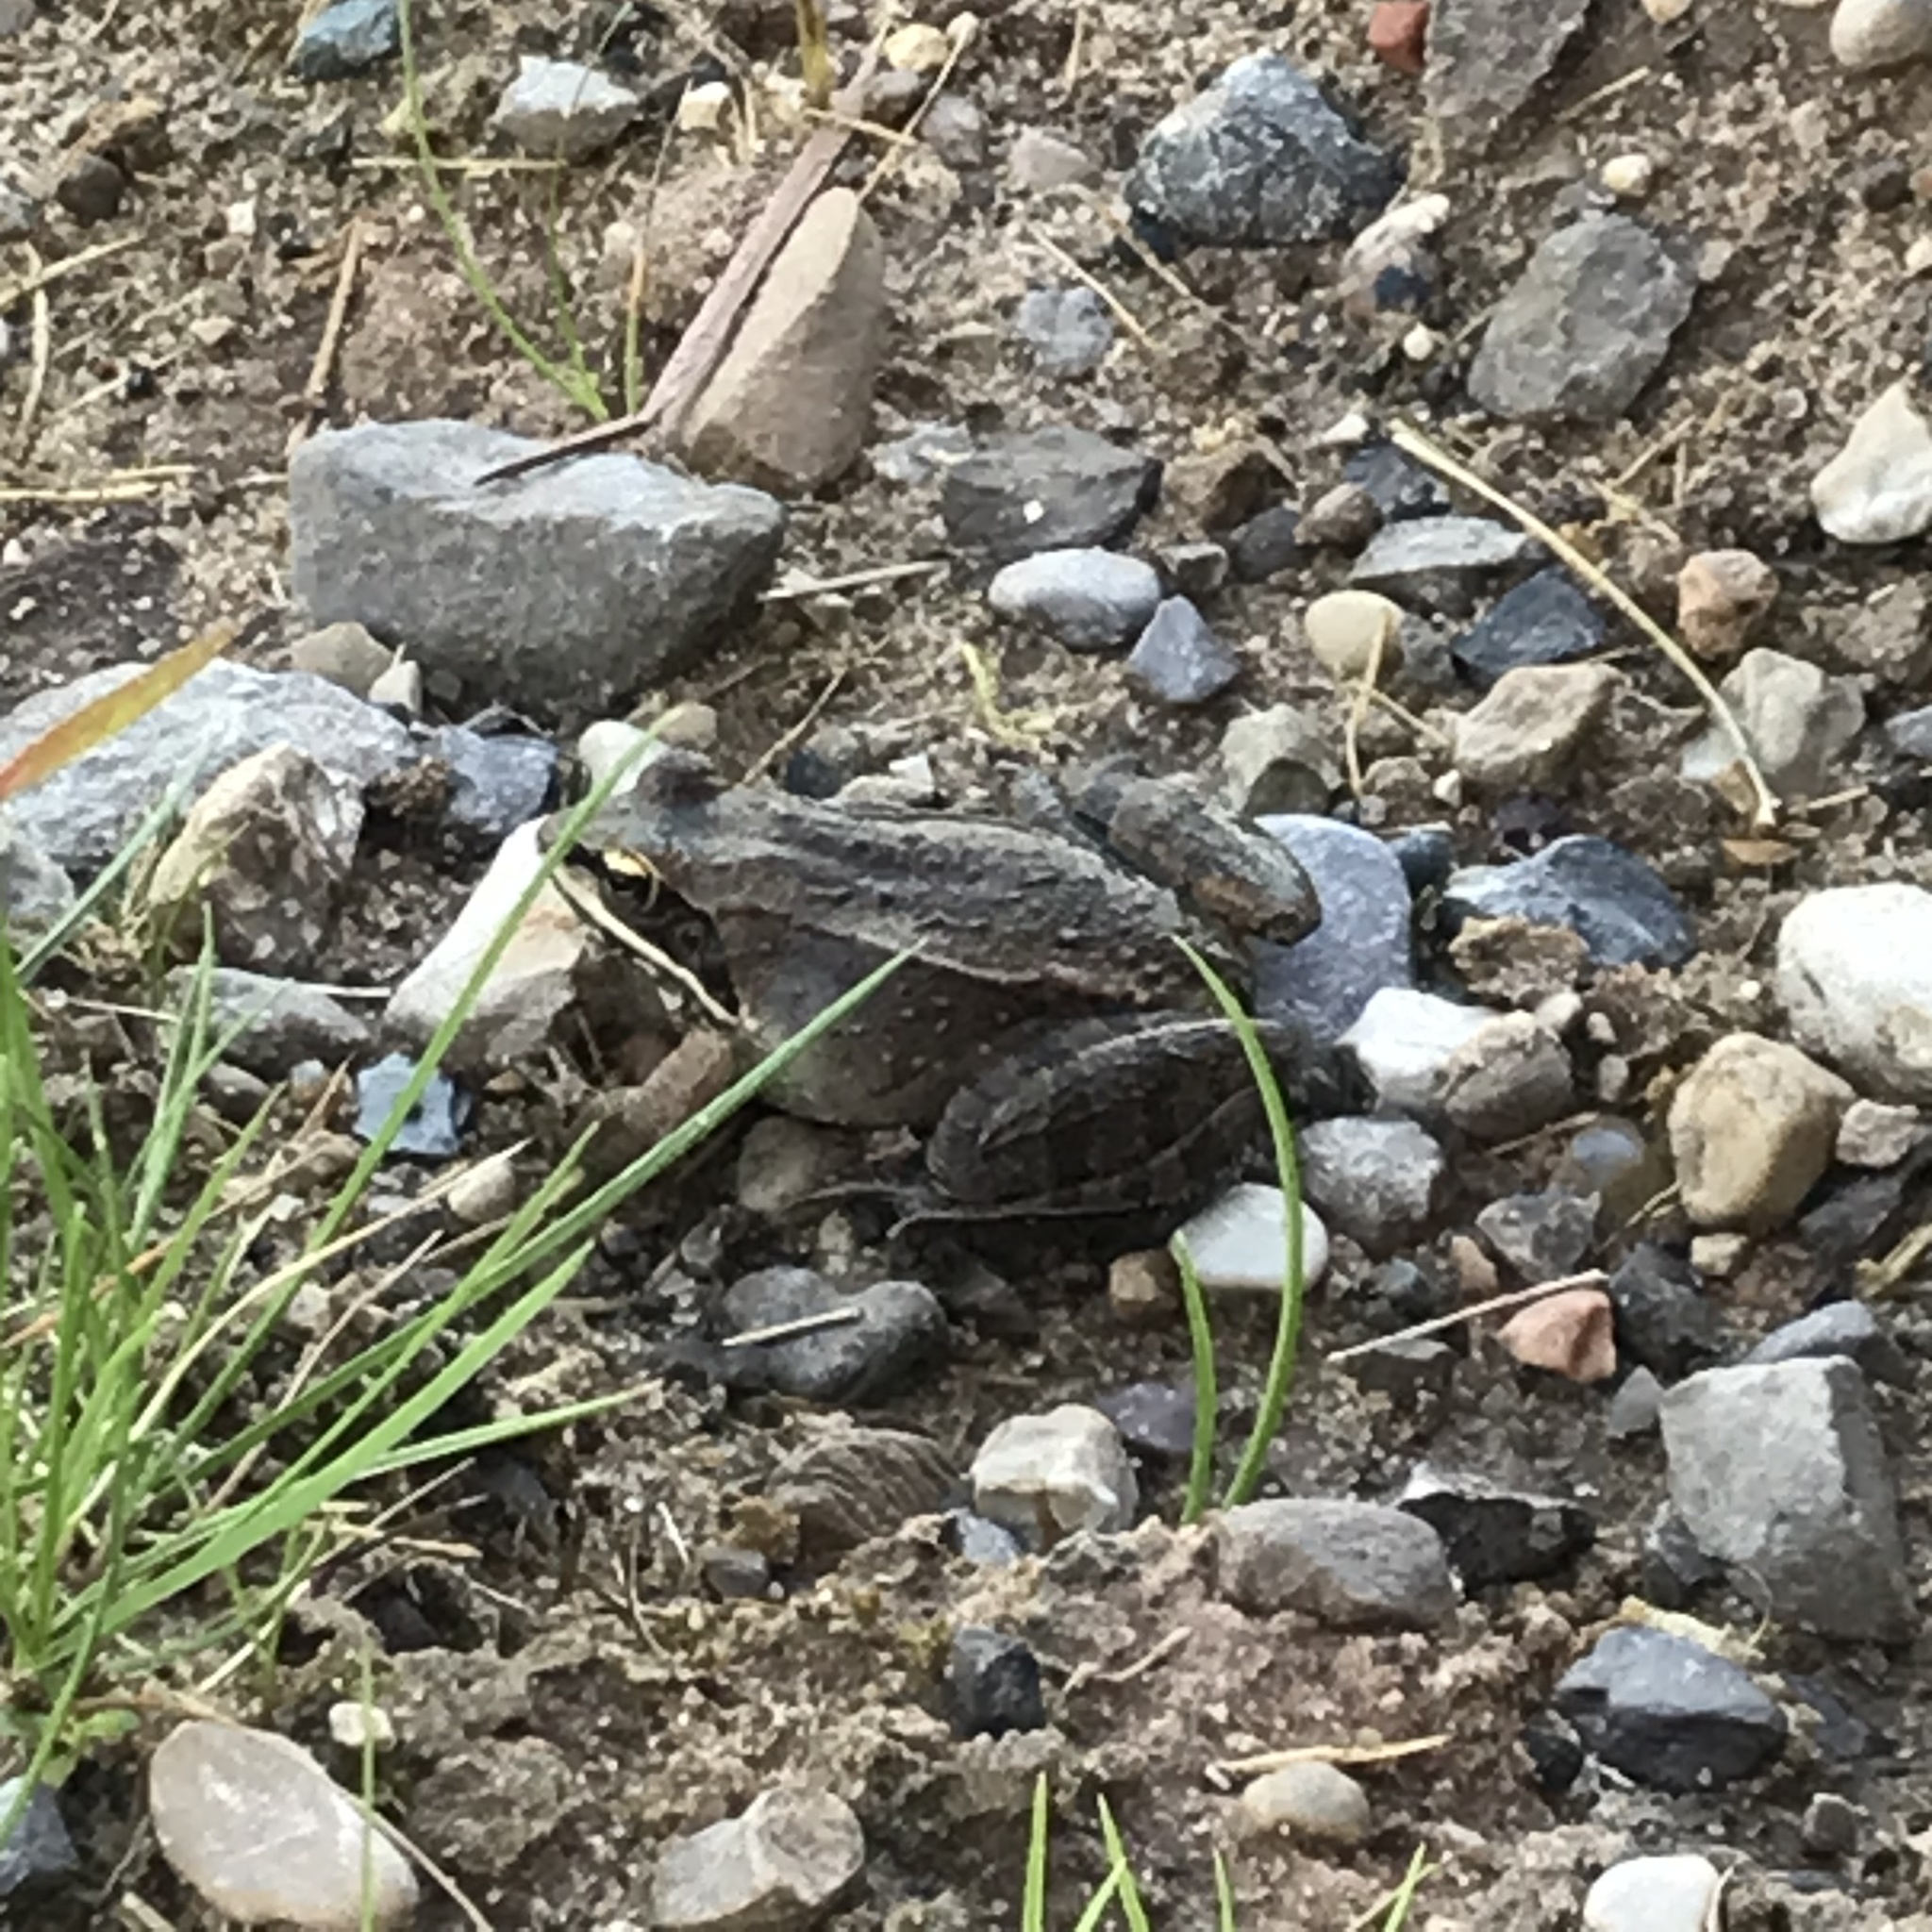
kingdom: Animalia
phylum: Chordata
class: Amphibia
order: Anura
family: Ranidae
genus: Lithobates
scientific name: Lithobates sylvaticus
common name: Wood frog
